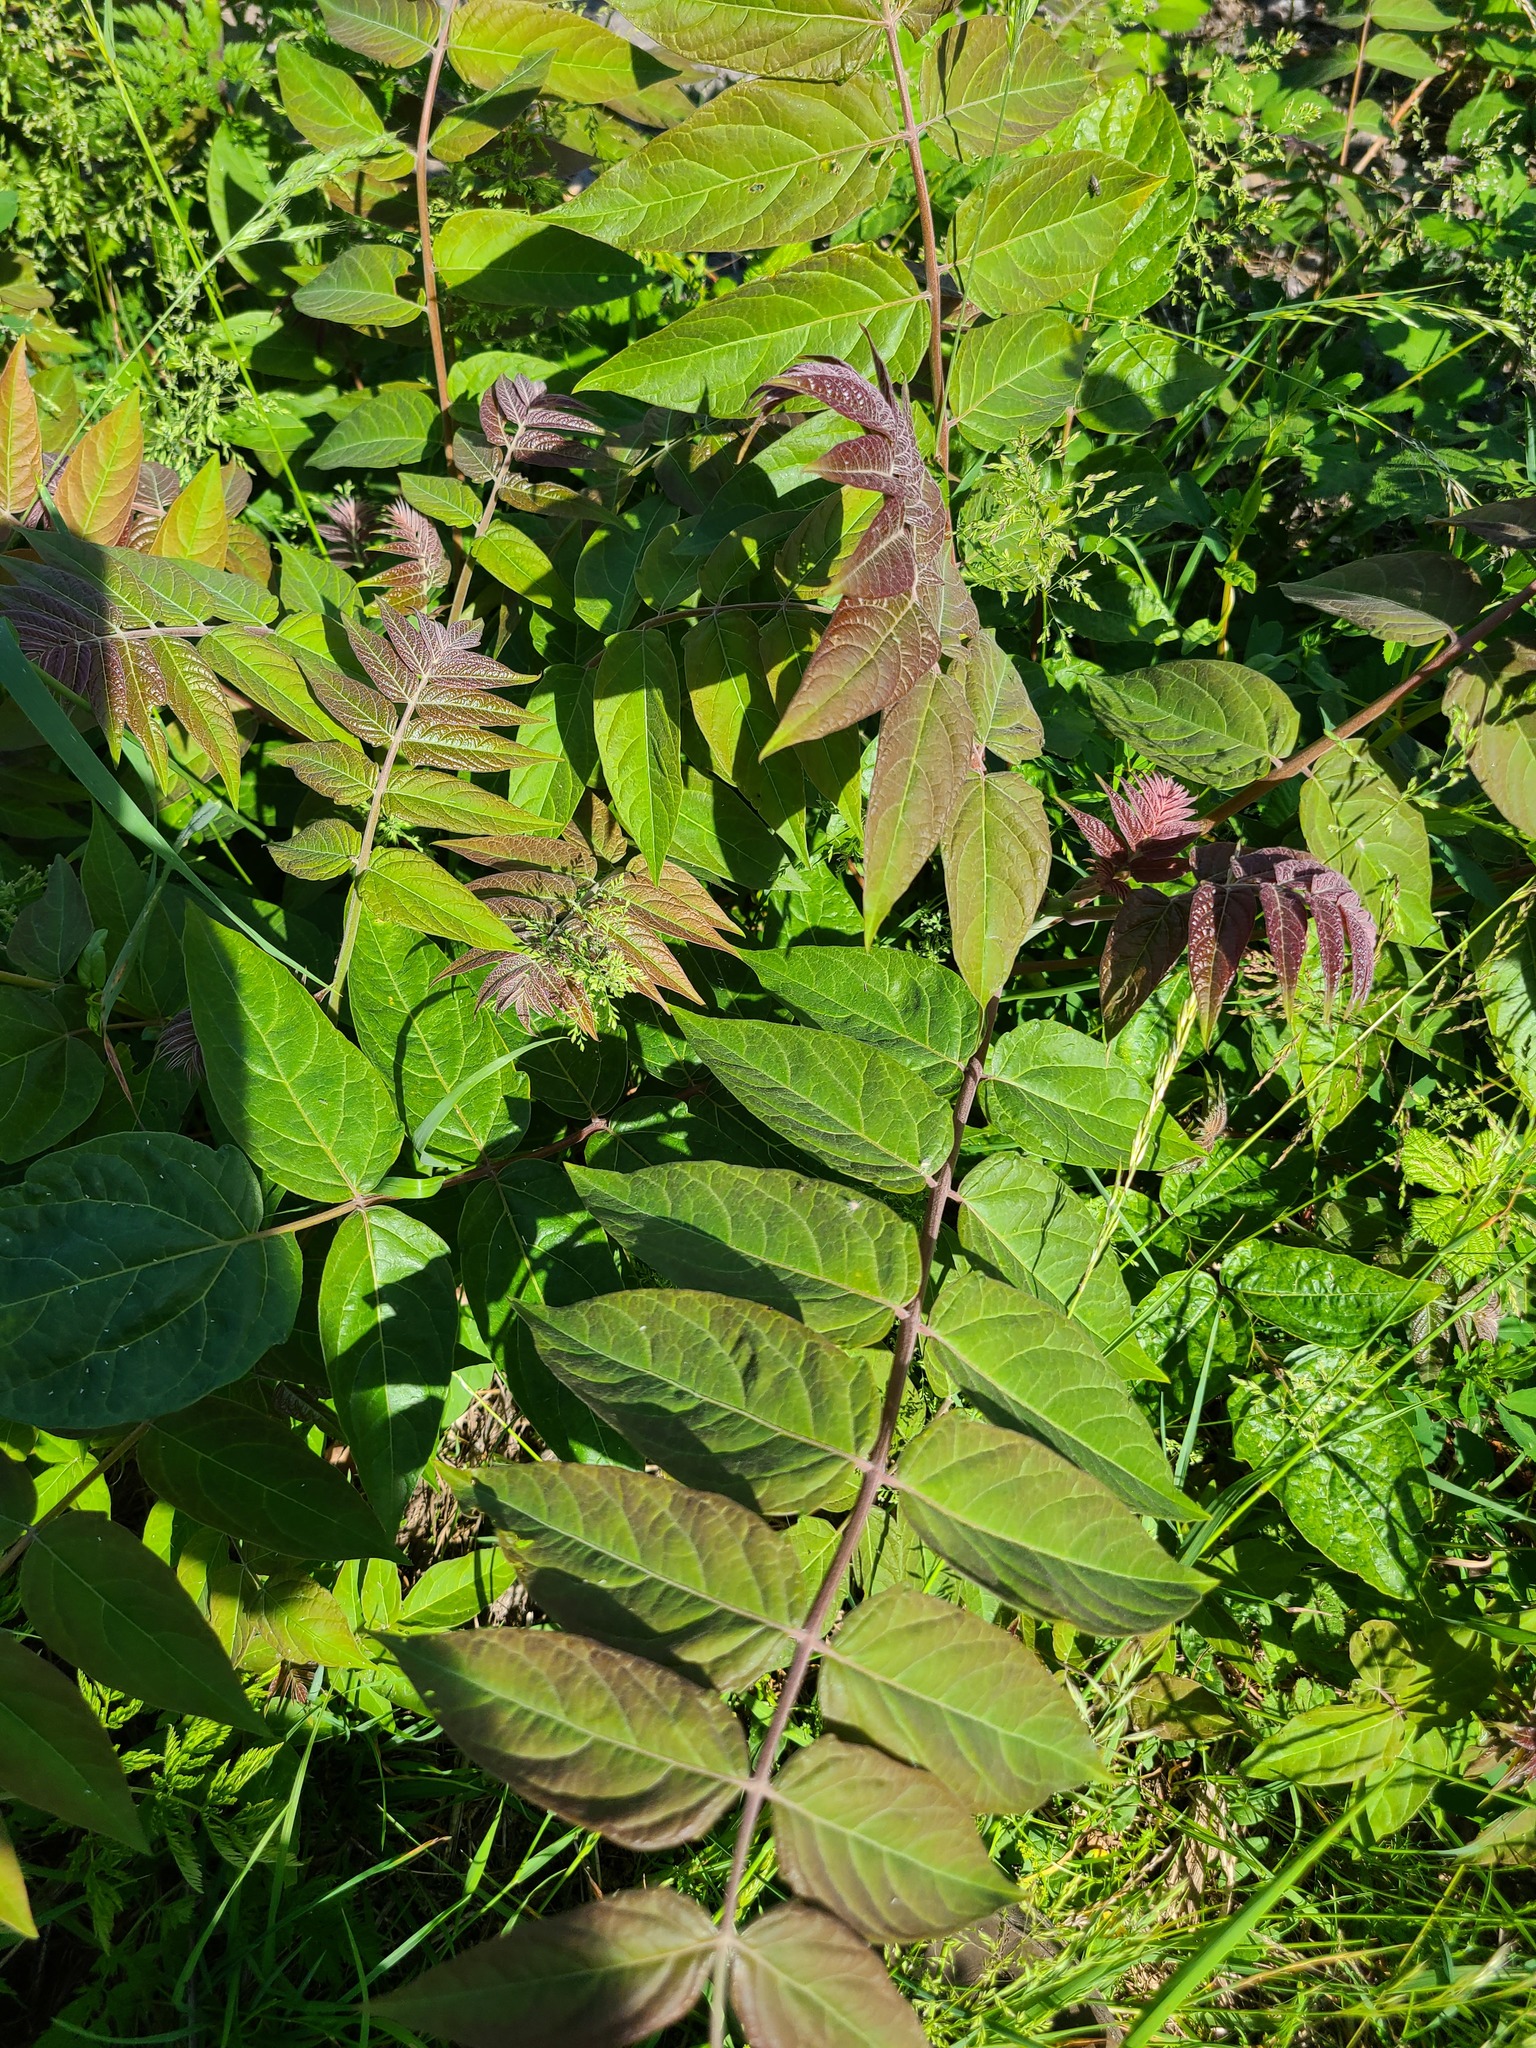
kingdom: Plantae
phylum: Tracheophyta
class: Magnoliopsida
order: Sapindales
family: Simaroubaceae
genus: Ailanthus
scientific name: Ailanthus altissima
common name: Tree-of-heaven
